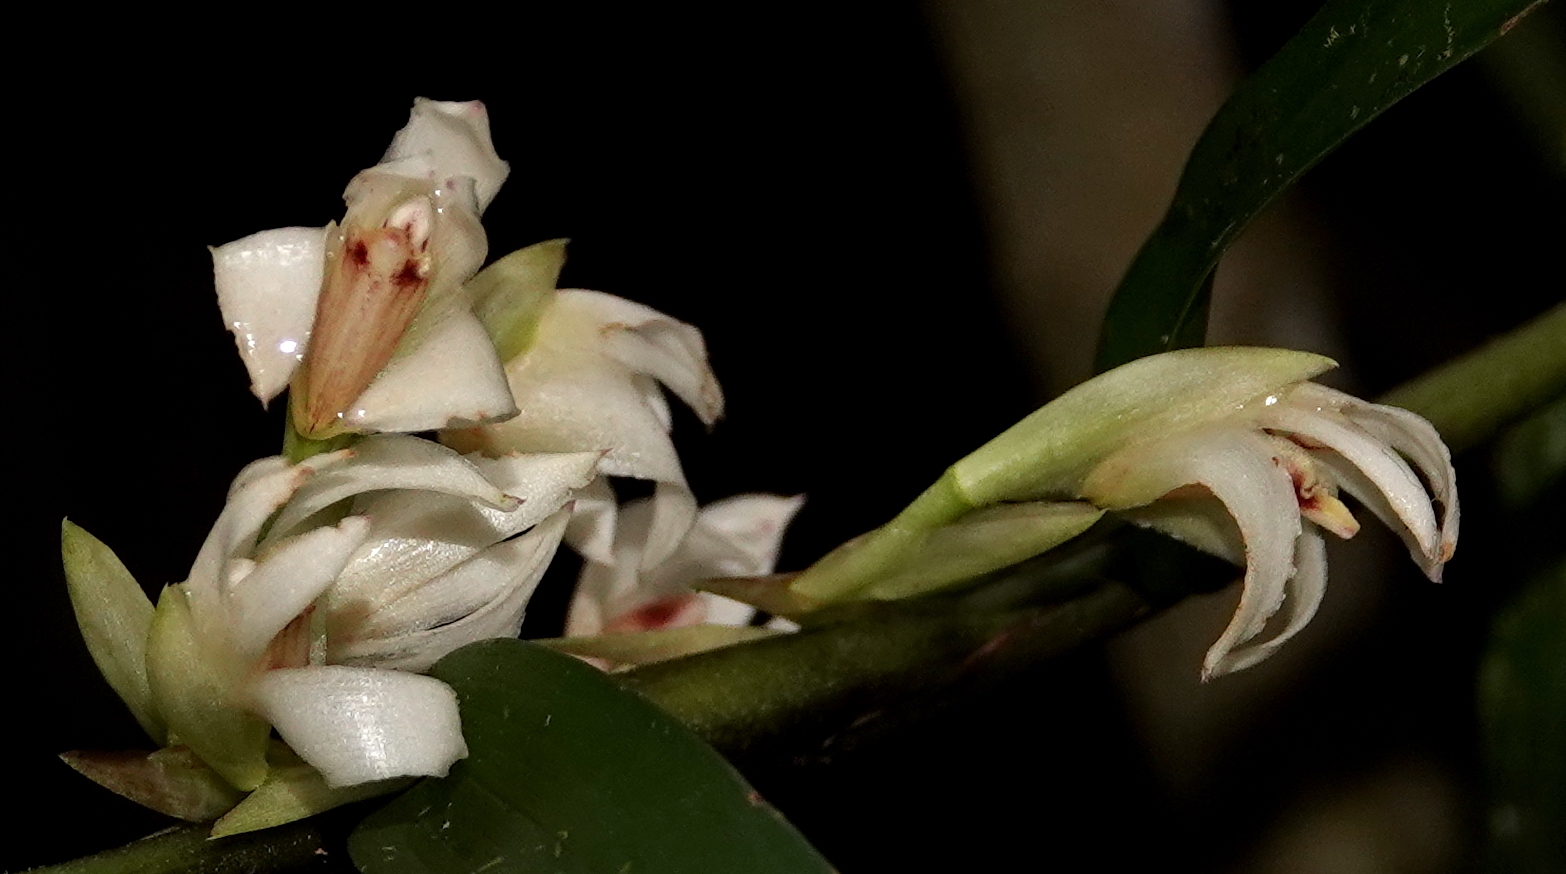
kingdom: Plantae
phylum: Tracheophyta
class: Liliopsida
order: Asparagales
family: Orchidaceae
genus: Maxillaria
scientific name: Maxillaria embreei
